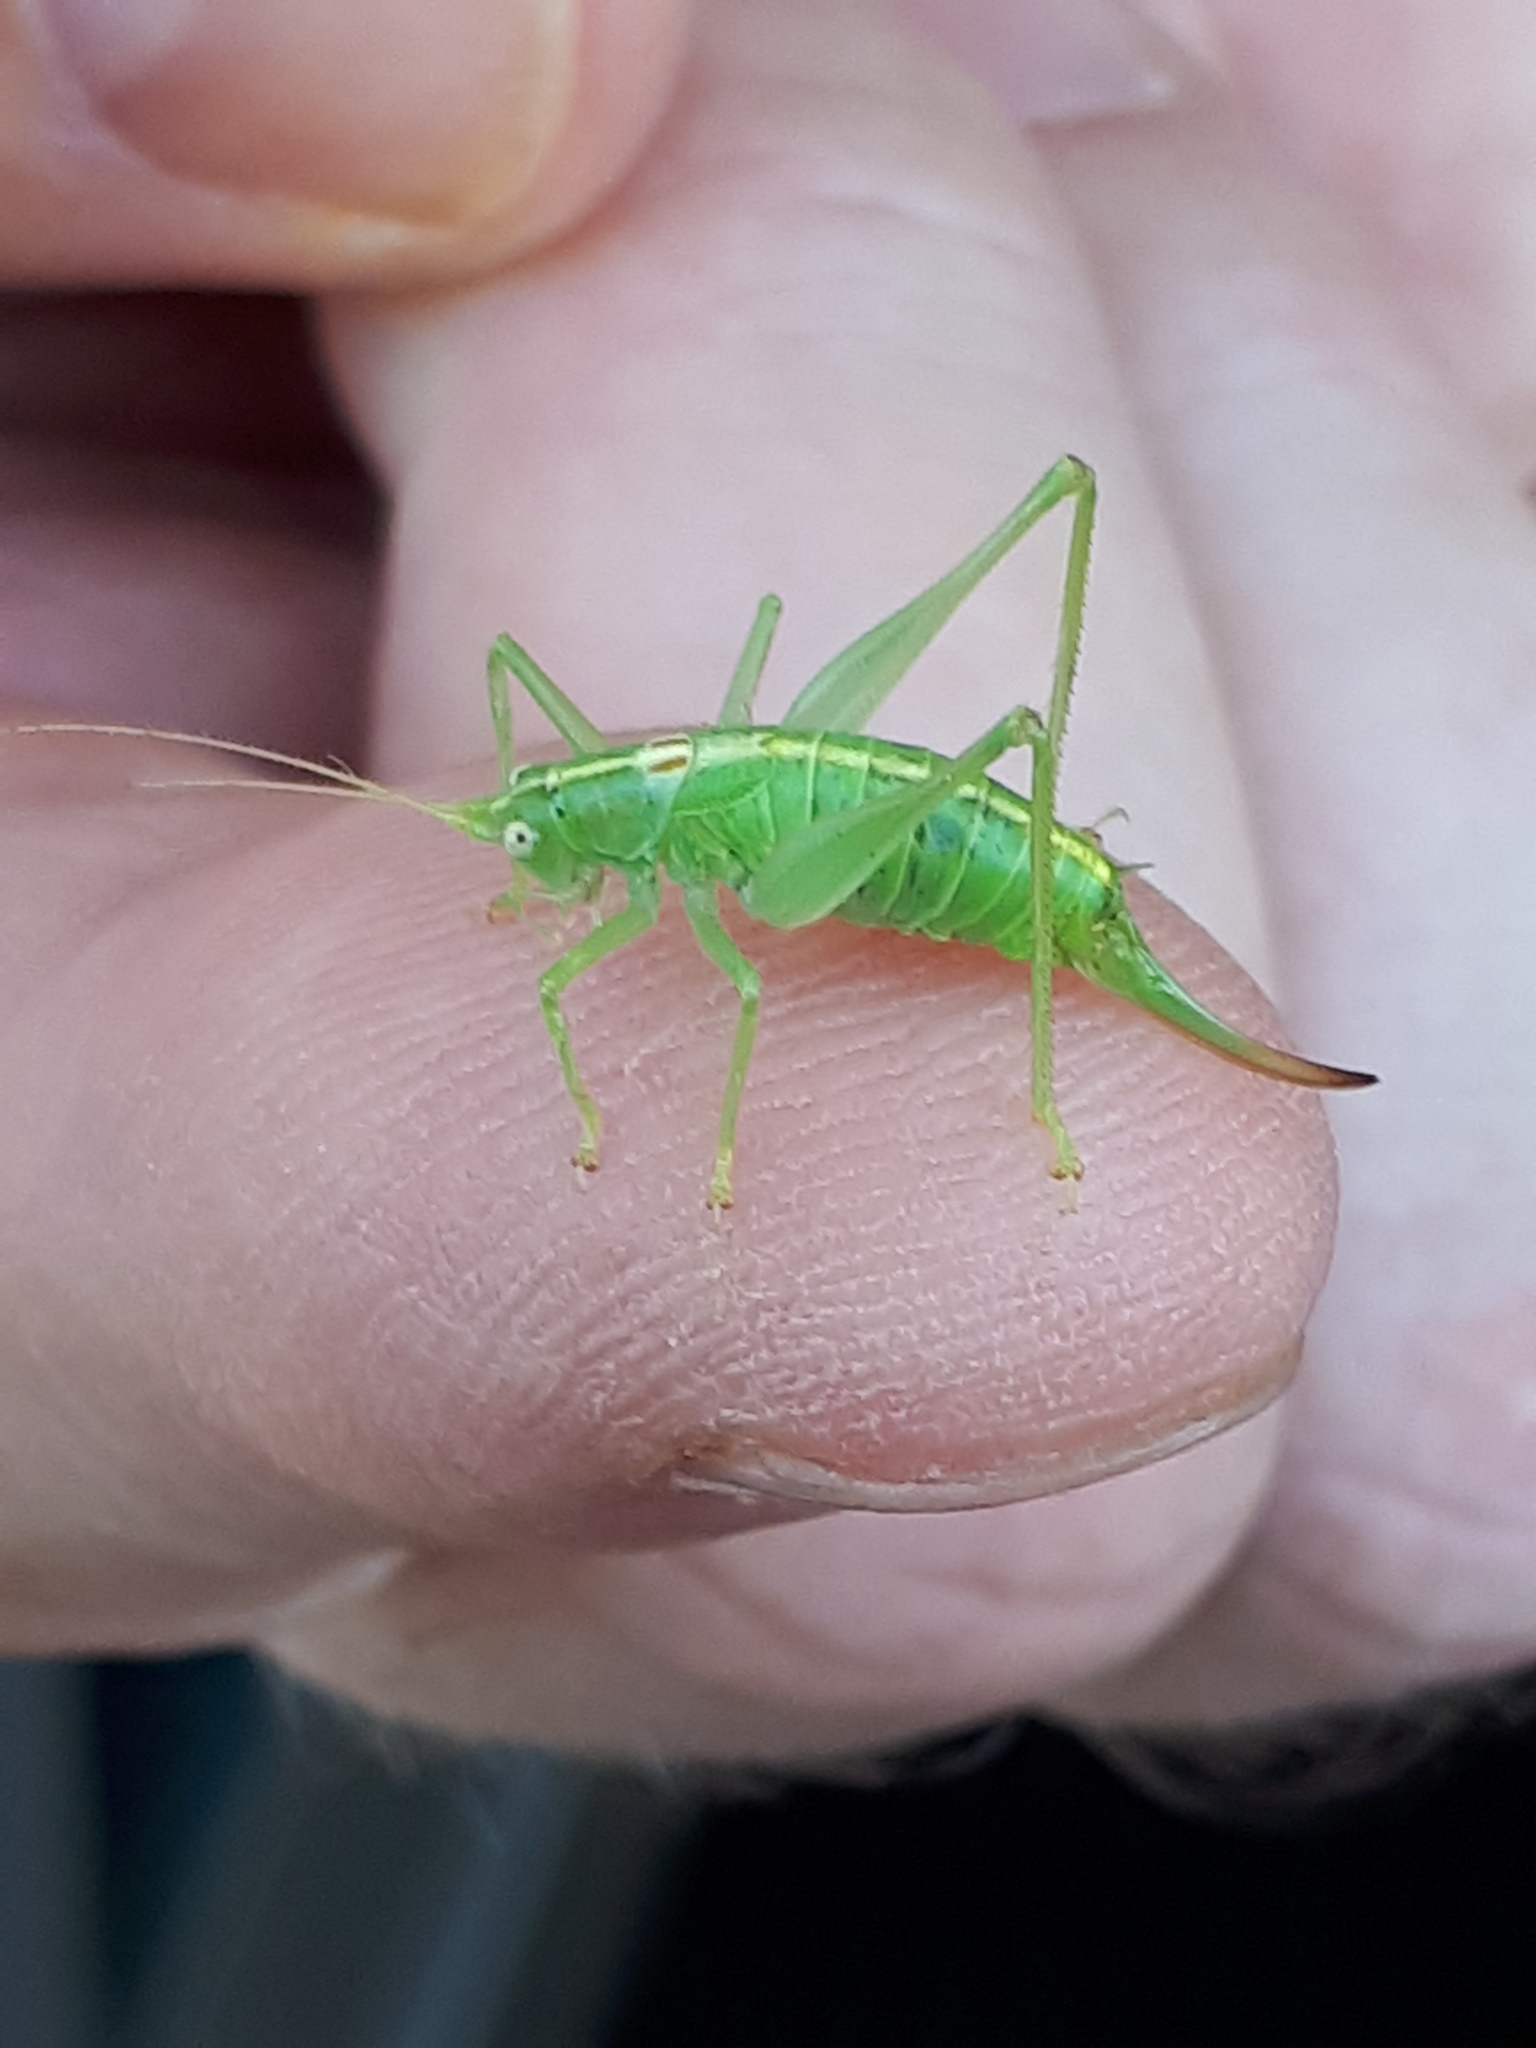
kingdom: Animalia
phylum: Arthropoda
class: Insecta
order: Orthoptera
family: Tettigoniidae
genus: Meconema
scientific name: Meconema meridionale
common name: Southern oak bush-cricket
